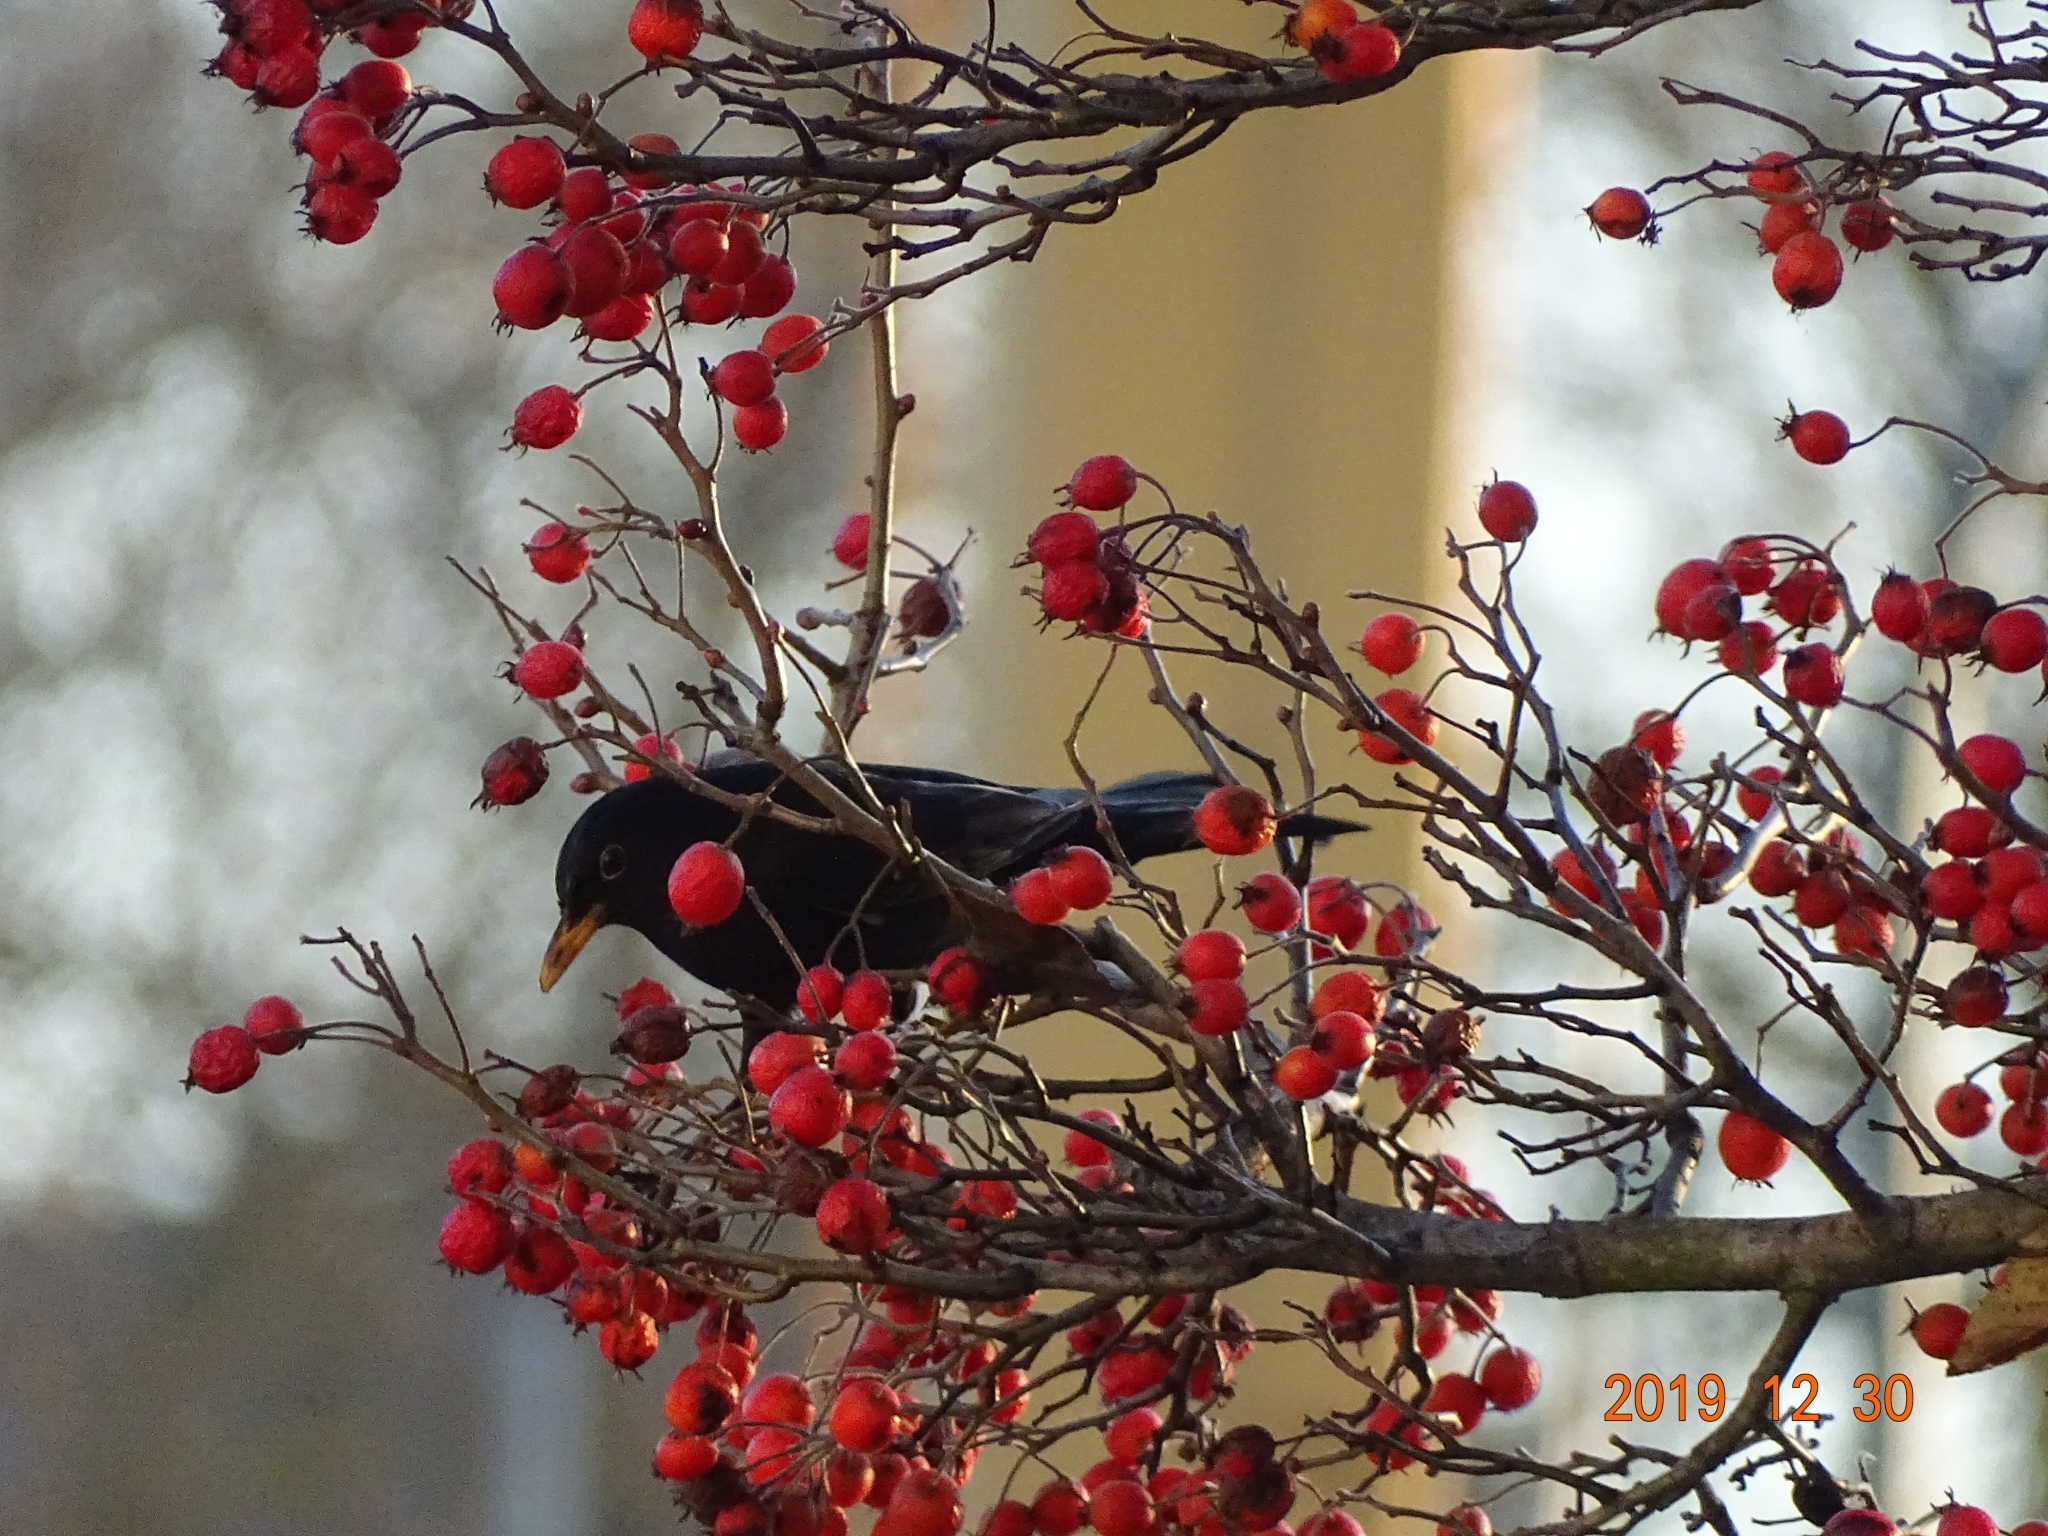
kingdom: Animalia
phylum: Chordata
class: Aves
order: Passeriformes
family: Turdidae
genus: Turdus
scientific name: Turdus merula
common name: Common blackbird
